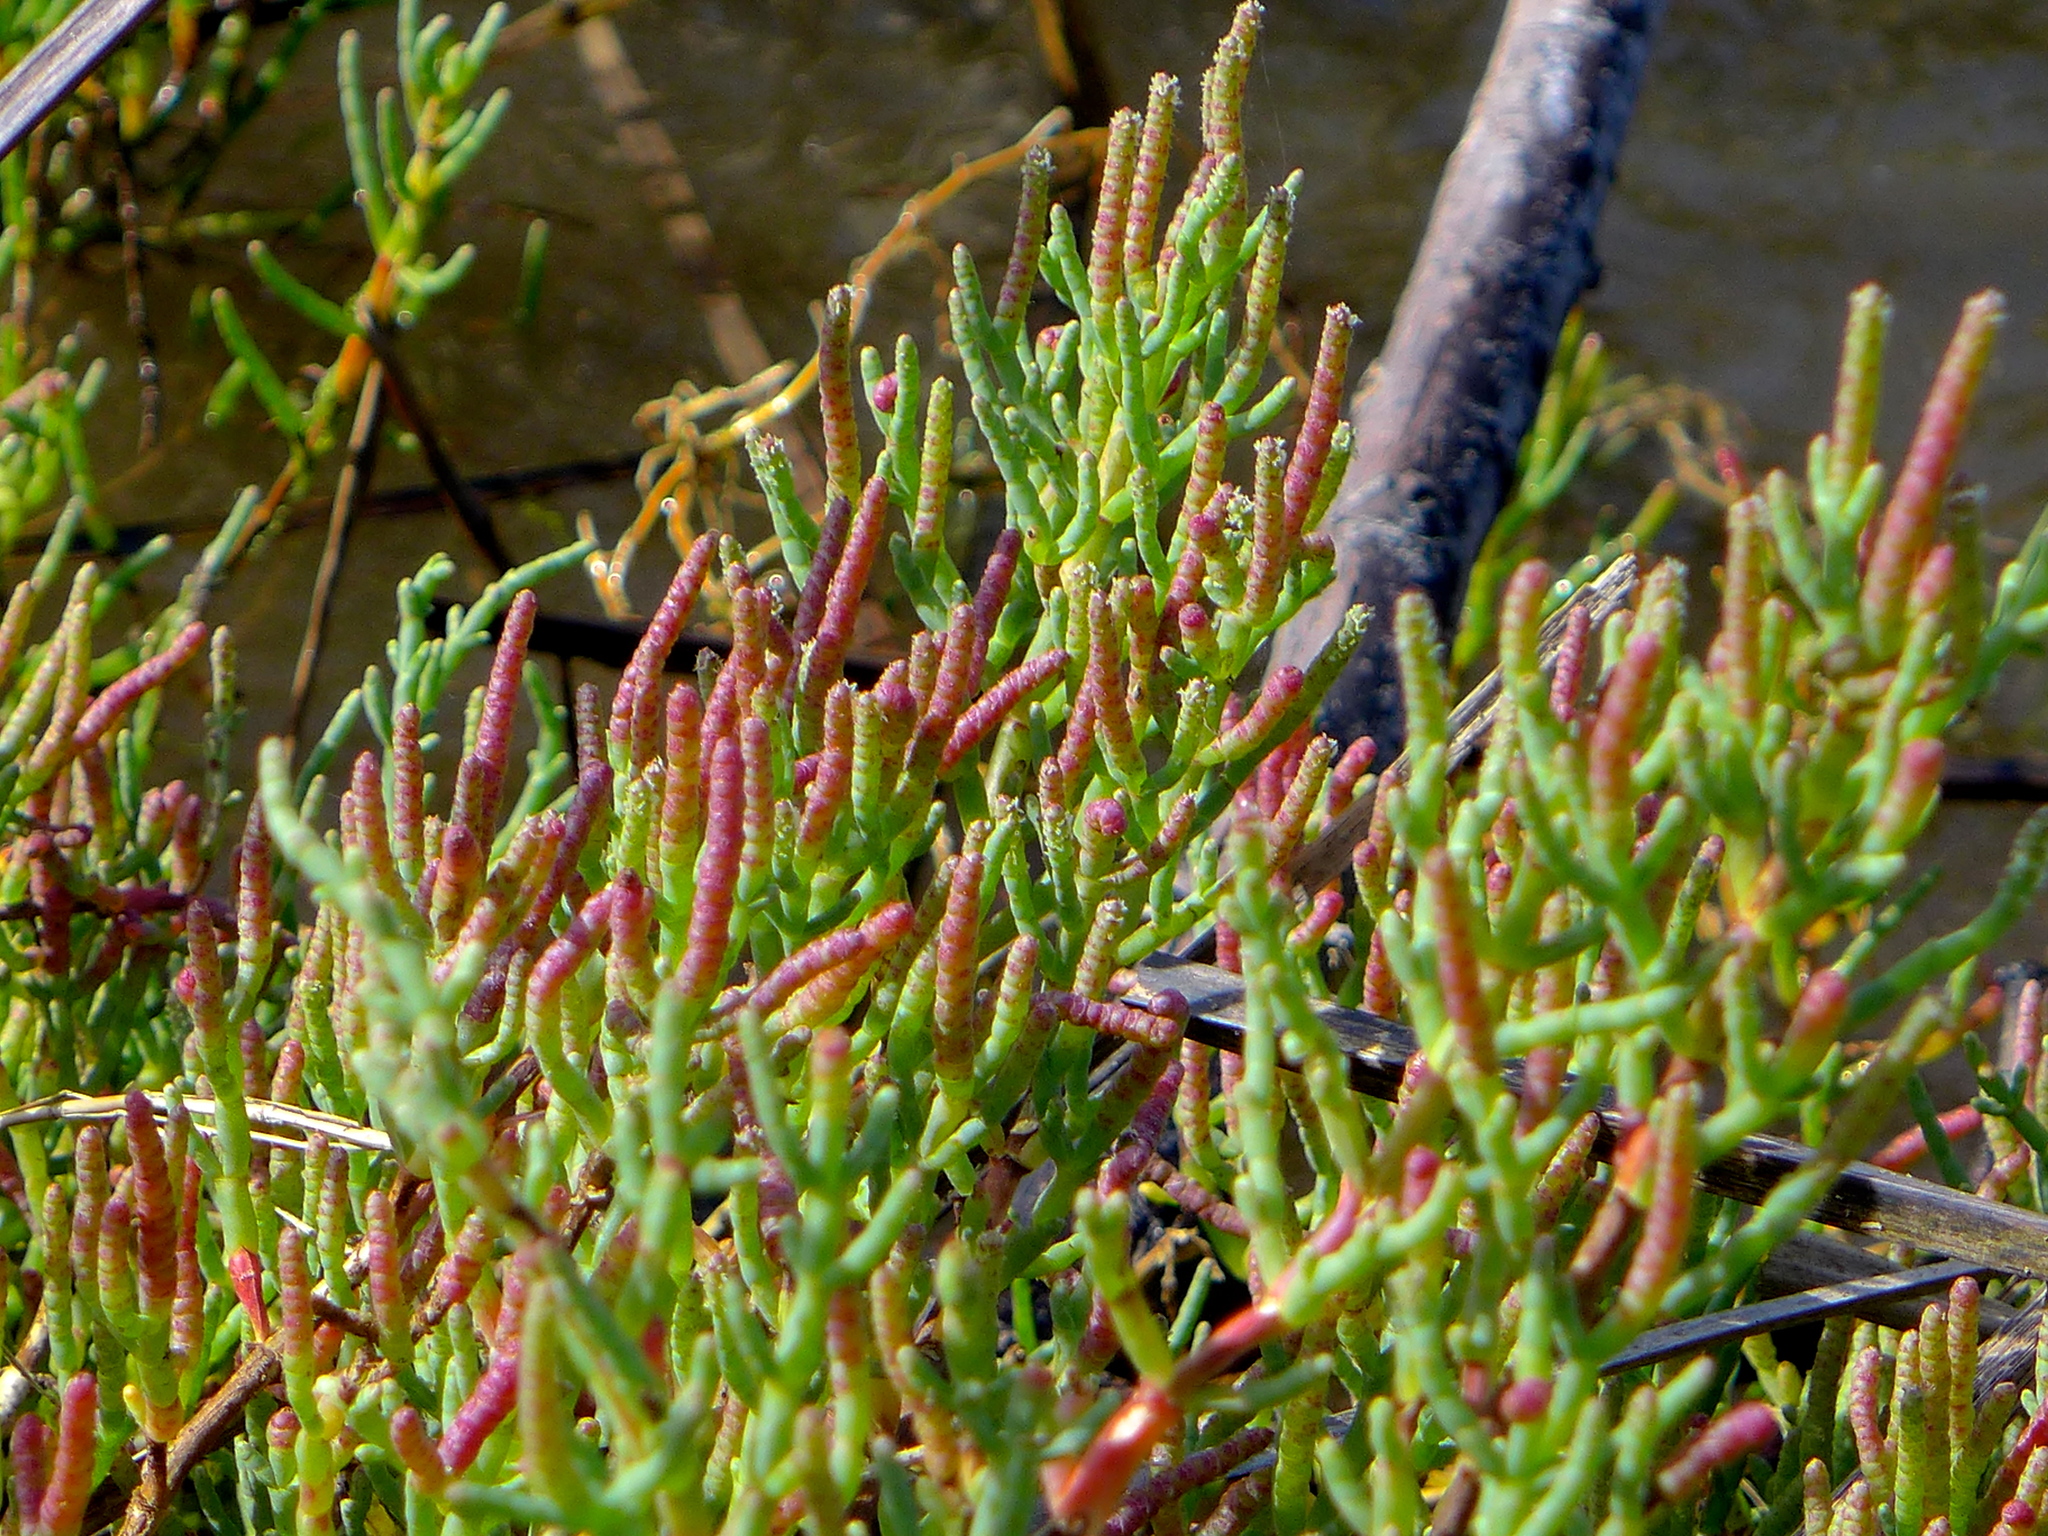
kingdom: Plantae
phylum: Tracheophyta
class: Magnoliopsida
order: Caryophyllales
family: Amaranthaceae
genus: Salicornia
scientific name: Salicornia pacifica
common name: Pacific glasswort
